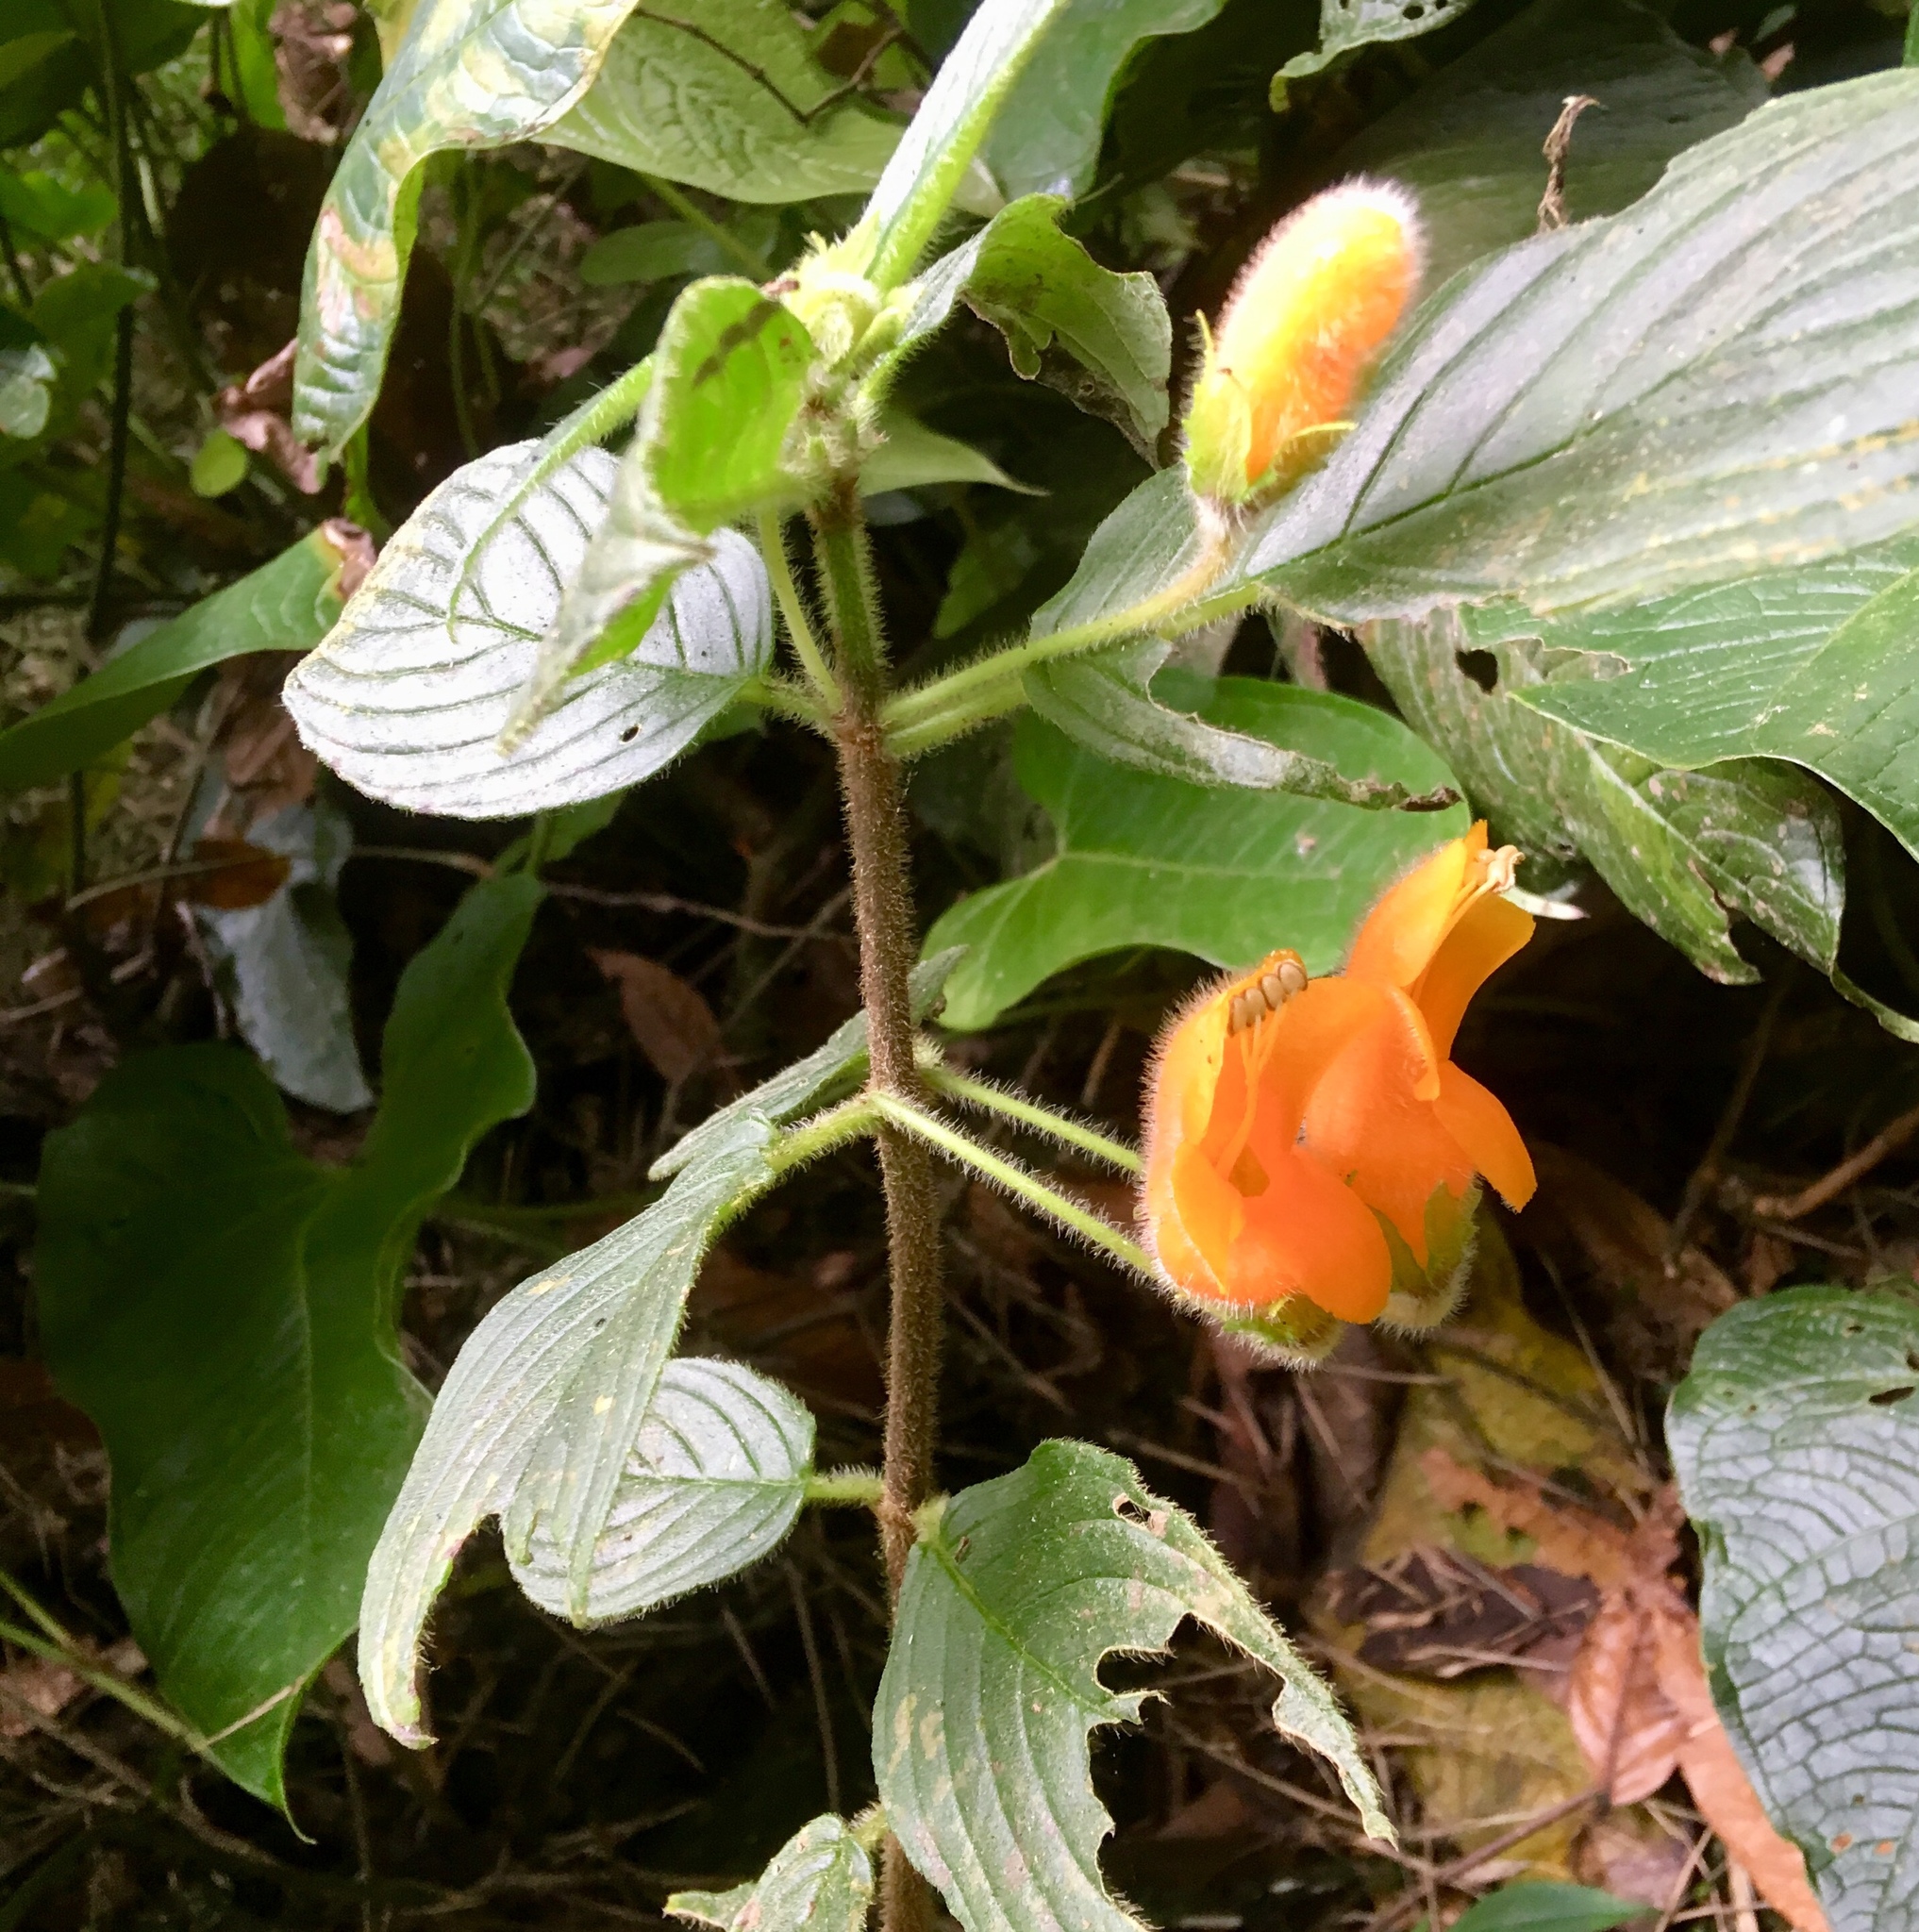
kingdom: Plantae
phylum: Tracheophyta
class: Magnoliopsida
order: Lamiales
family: Gesneriaceae
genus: Columnea
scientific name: Columnea strigosa
